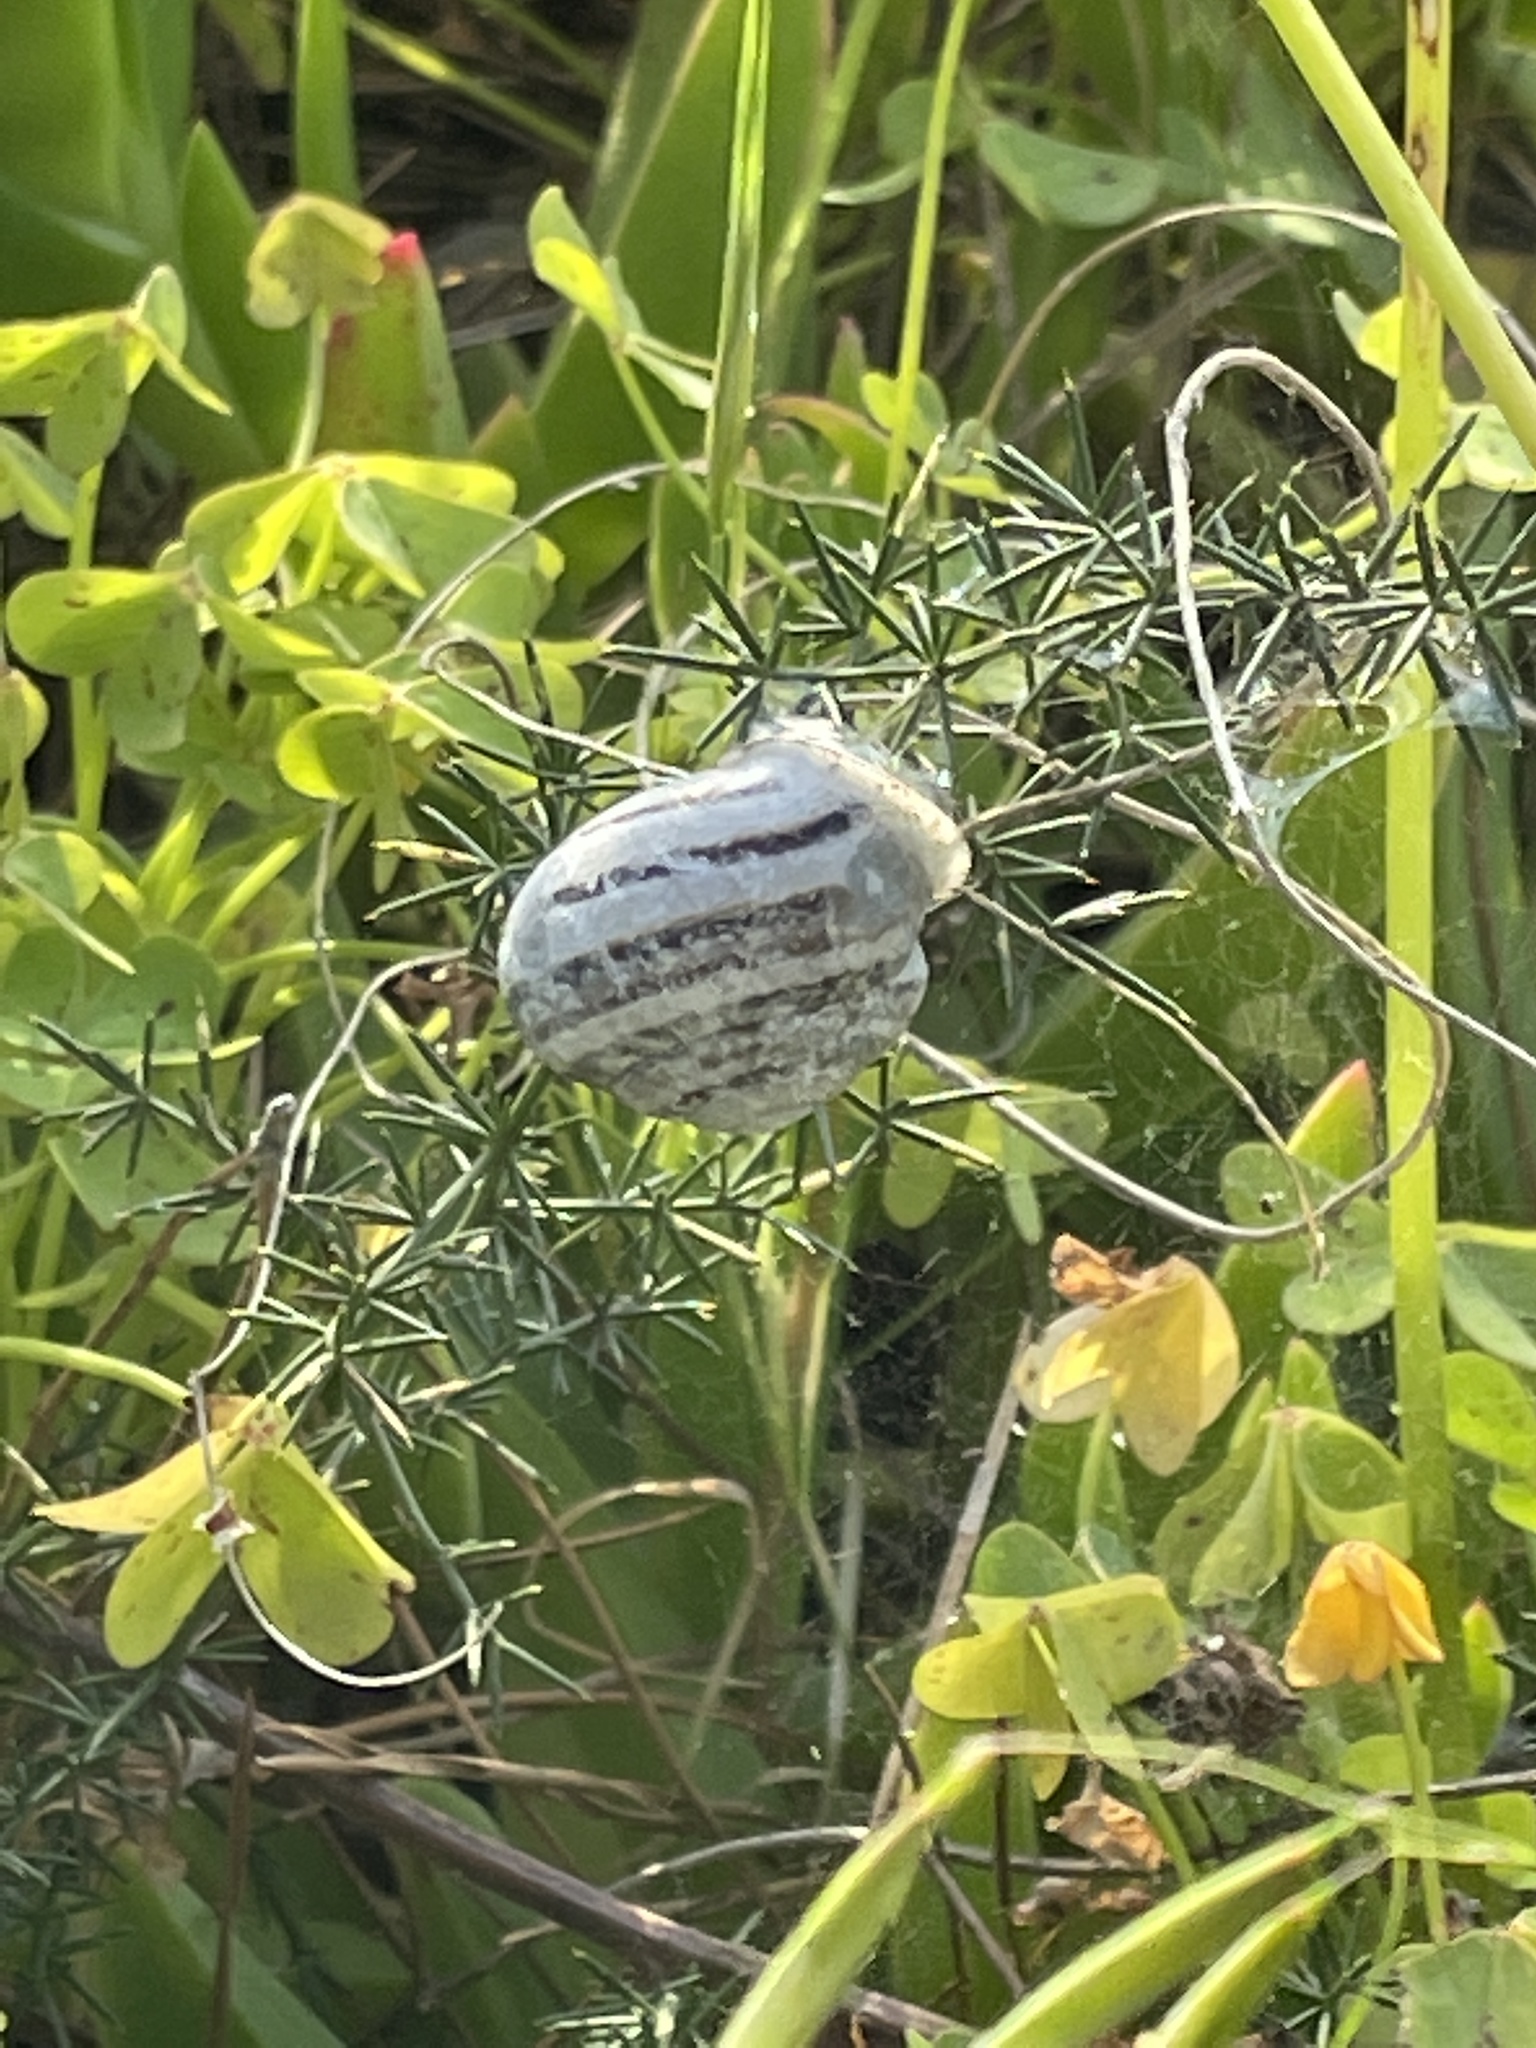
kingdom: Animalia
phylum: Mollusca
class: Gastropoda
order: Stylommatophora
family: Helicidae
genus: Eobania
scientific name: Eobania vermiculata
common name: Chocolateband snail
